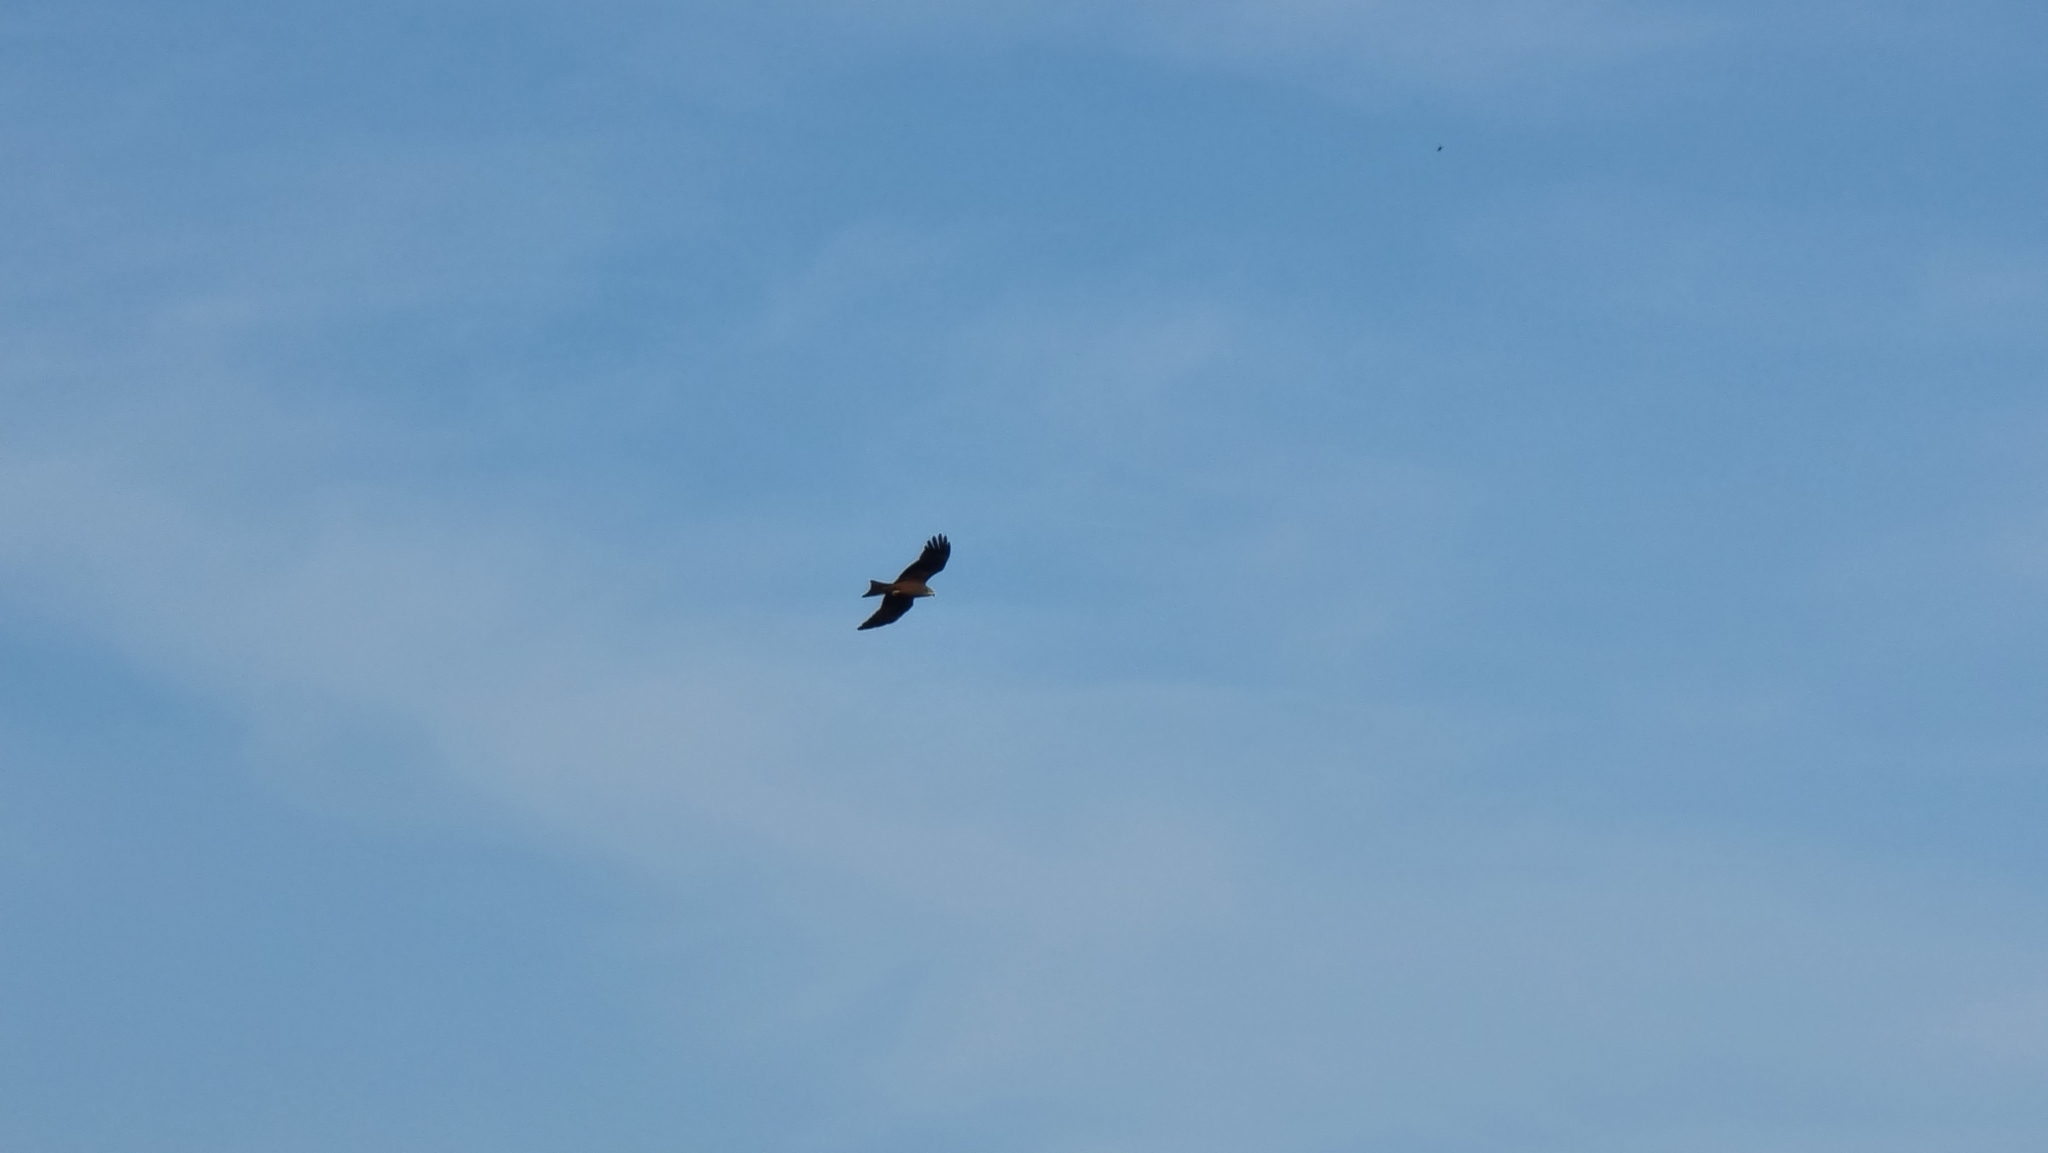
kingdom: Animalia
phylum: Chordata
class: Aves
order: Accipitriformes
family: Accipitridae
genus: Milvus
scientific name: Milvus migrans
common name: Black kite
